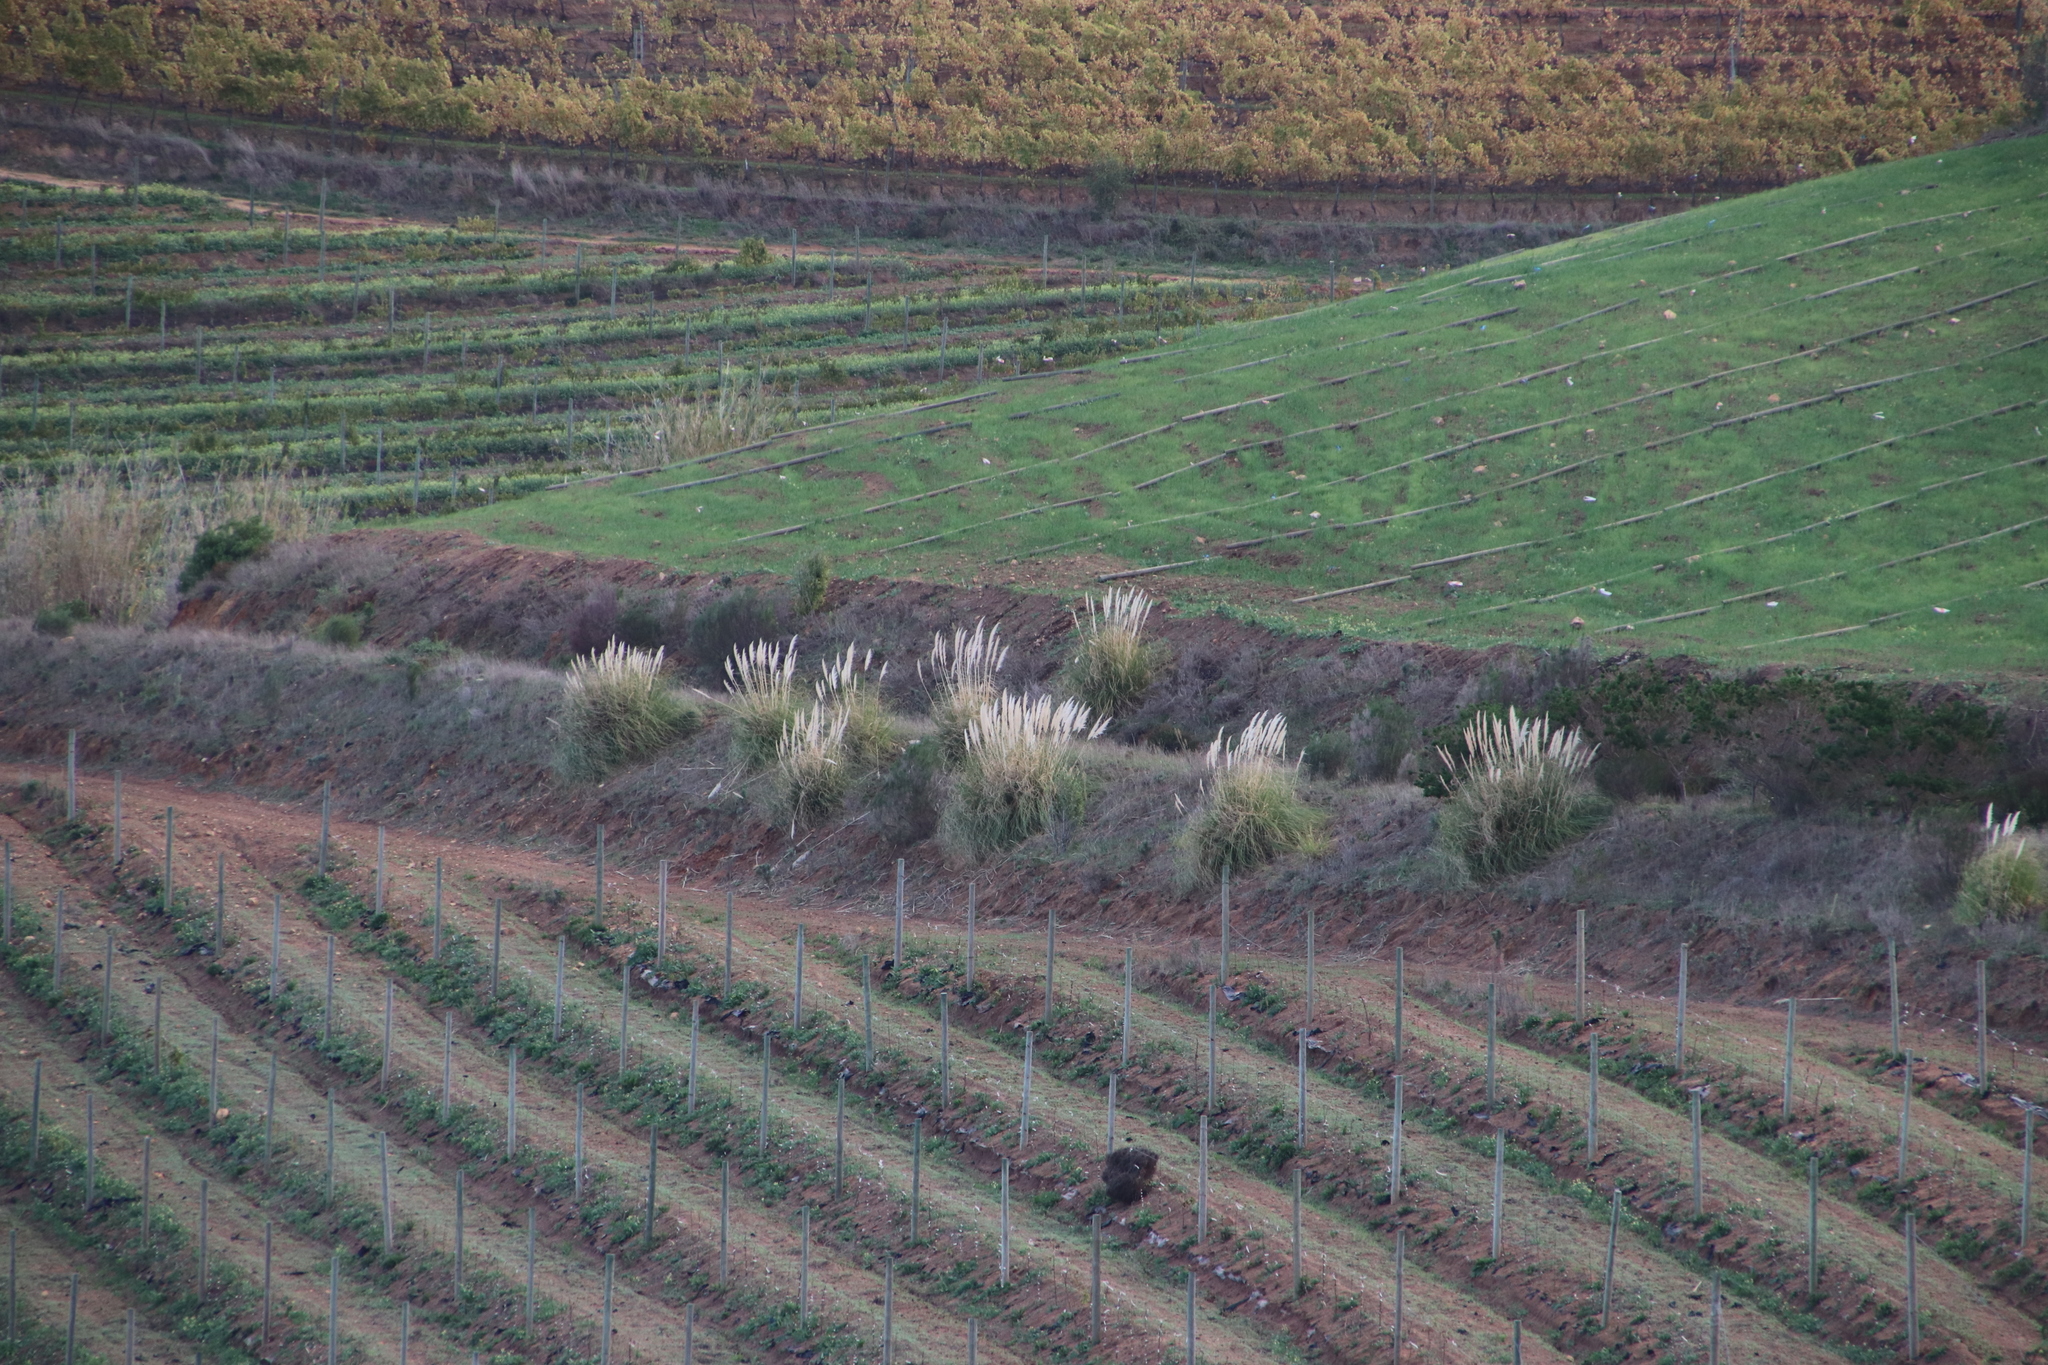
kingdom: Plantae
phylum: Tracheophyta
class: Liliopsida
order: Poales
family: Poaceae
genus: Cortaderia
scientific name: Cortaderia selloana
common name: Uruguayan pampas grass
